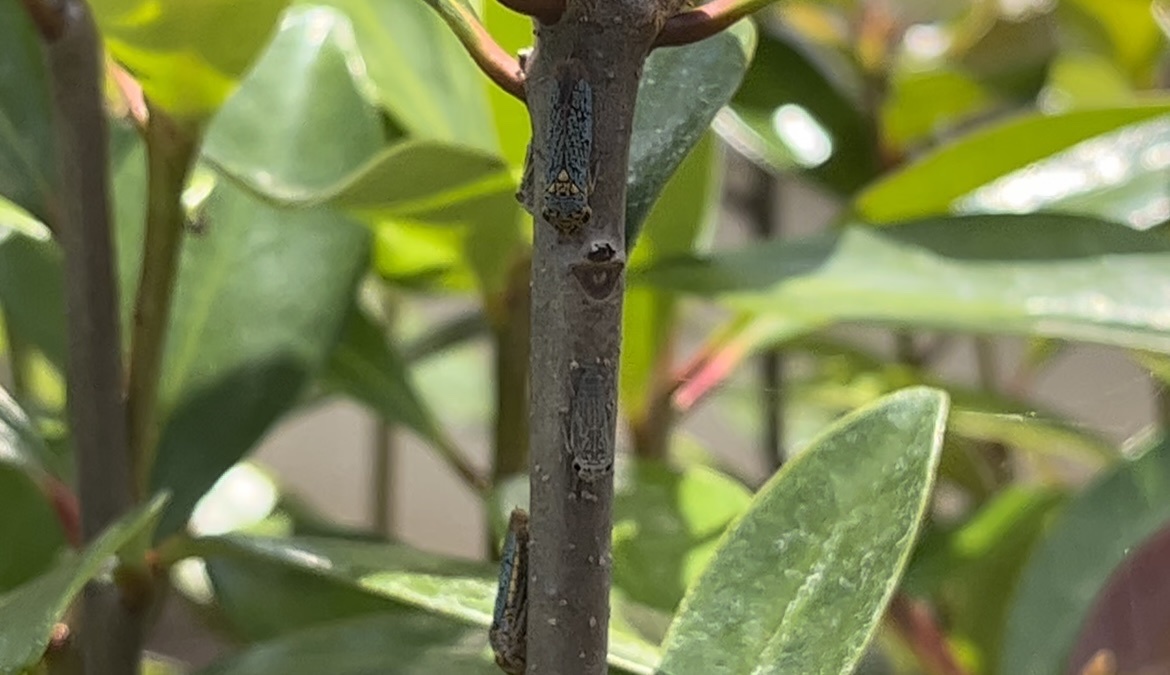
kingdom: Animalia
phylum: Arthropoda
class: Insecta
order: Hemiptera
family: Cicadellidae
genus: Oncometopia
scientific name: Oncometopia orbona
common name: Broad-headed sharpshooter
